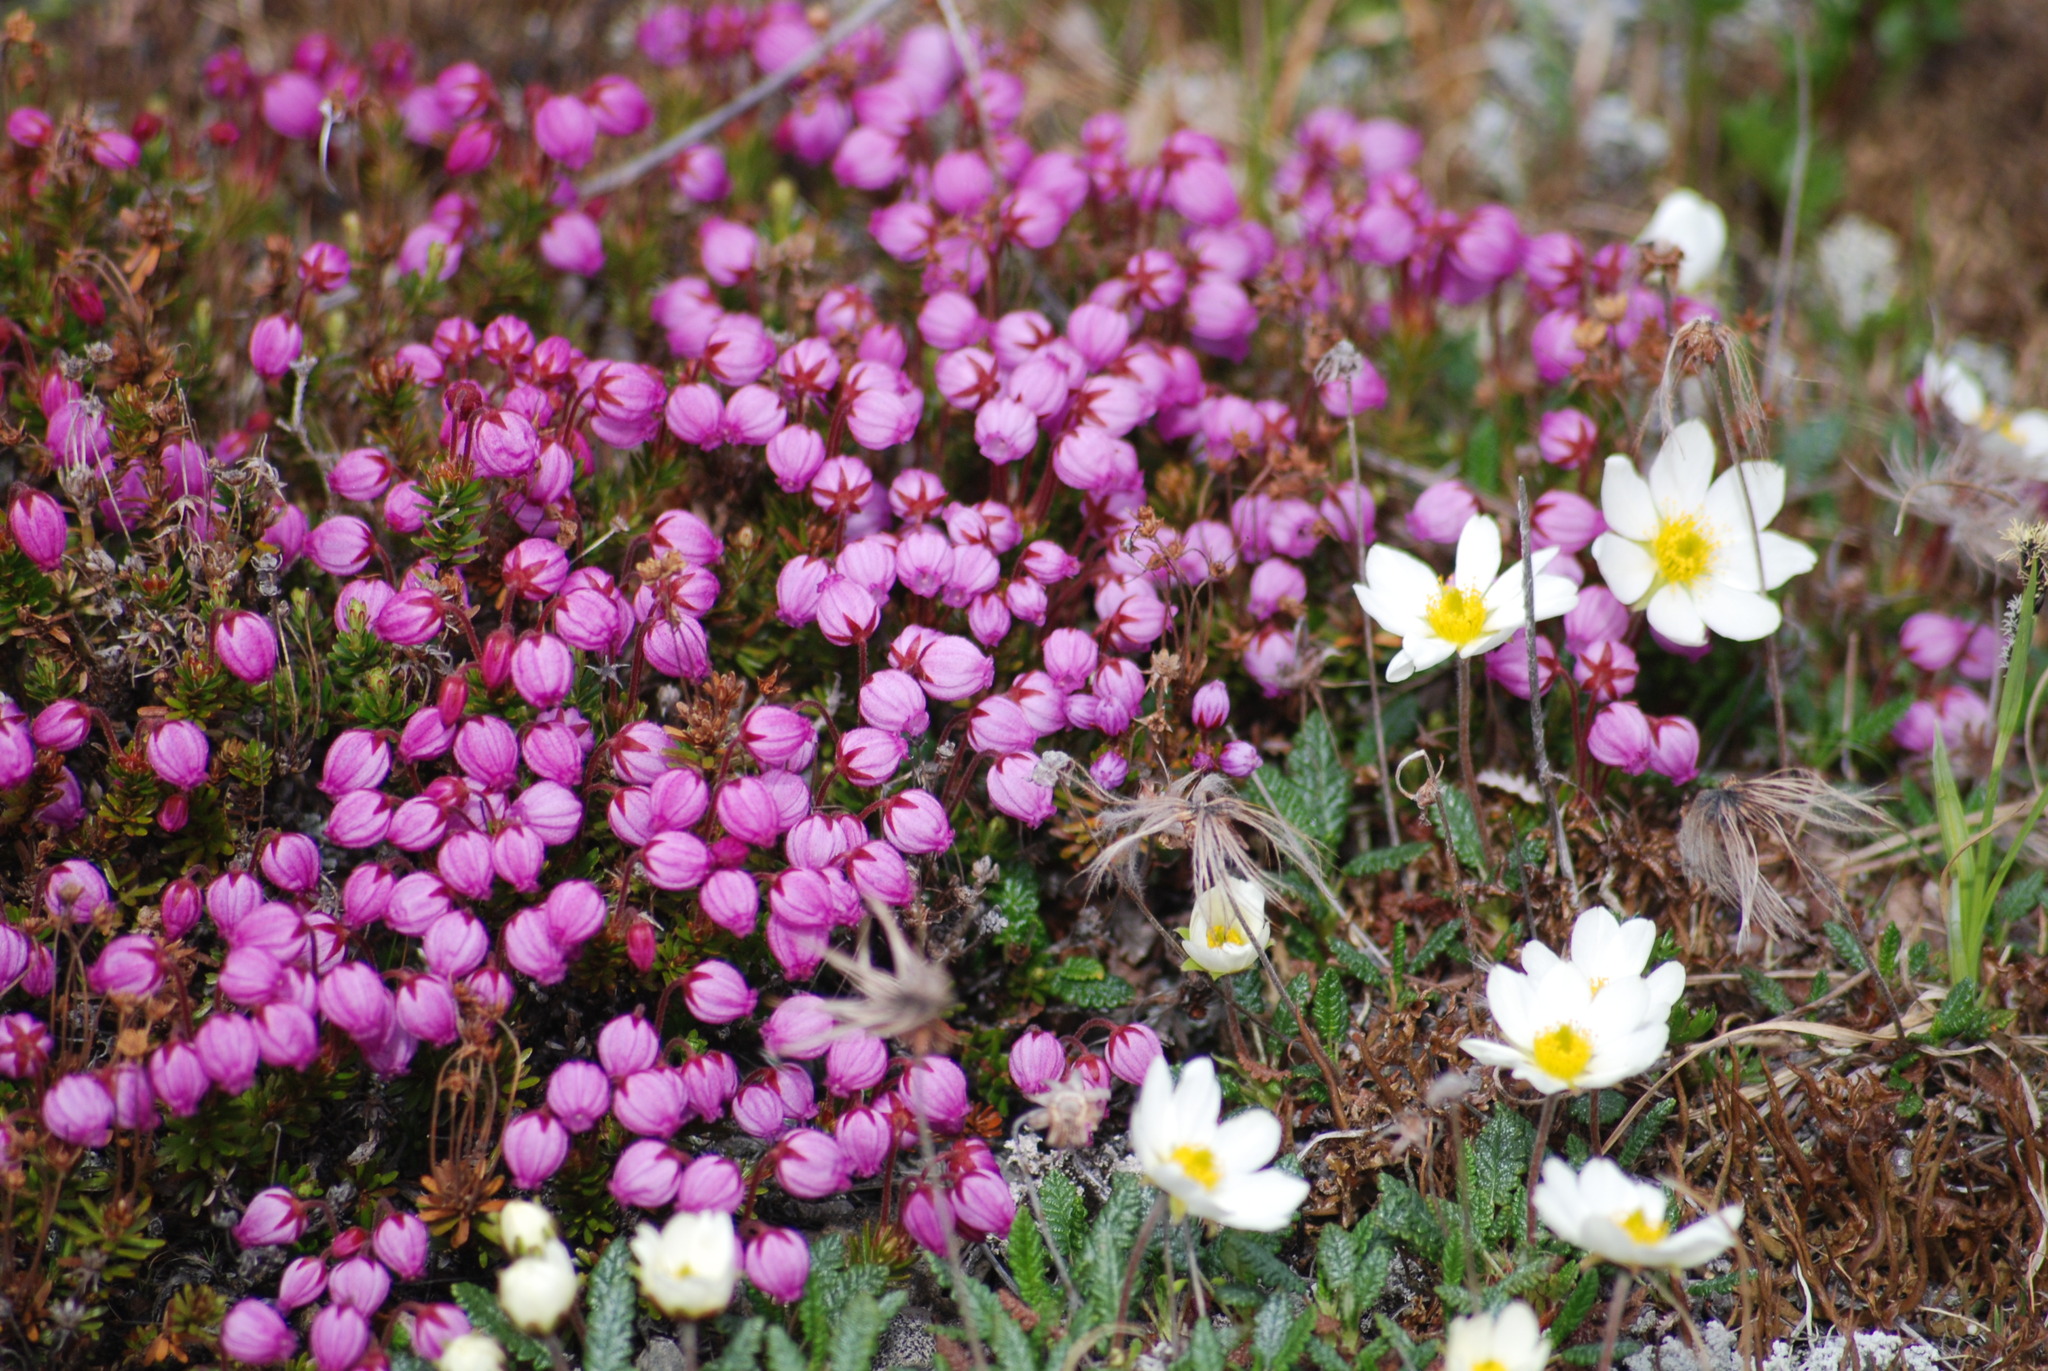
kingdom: Plantae
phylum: Tracheophyta
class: Magnoliopsida
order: Ericales
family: Ericaceae
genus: Phyllodoce
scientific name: Phyllodoce caerulea
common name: Blue heath
